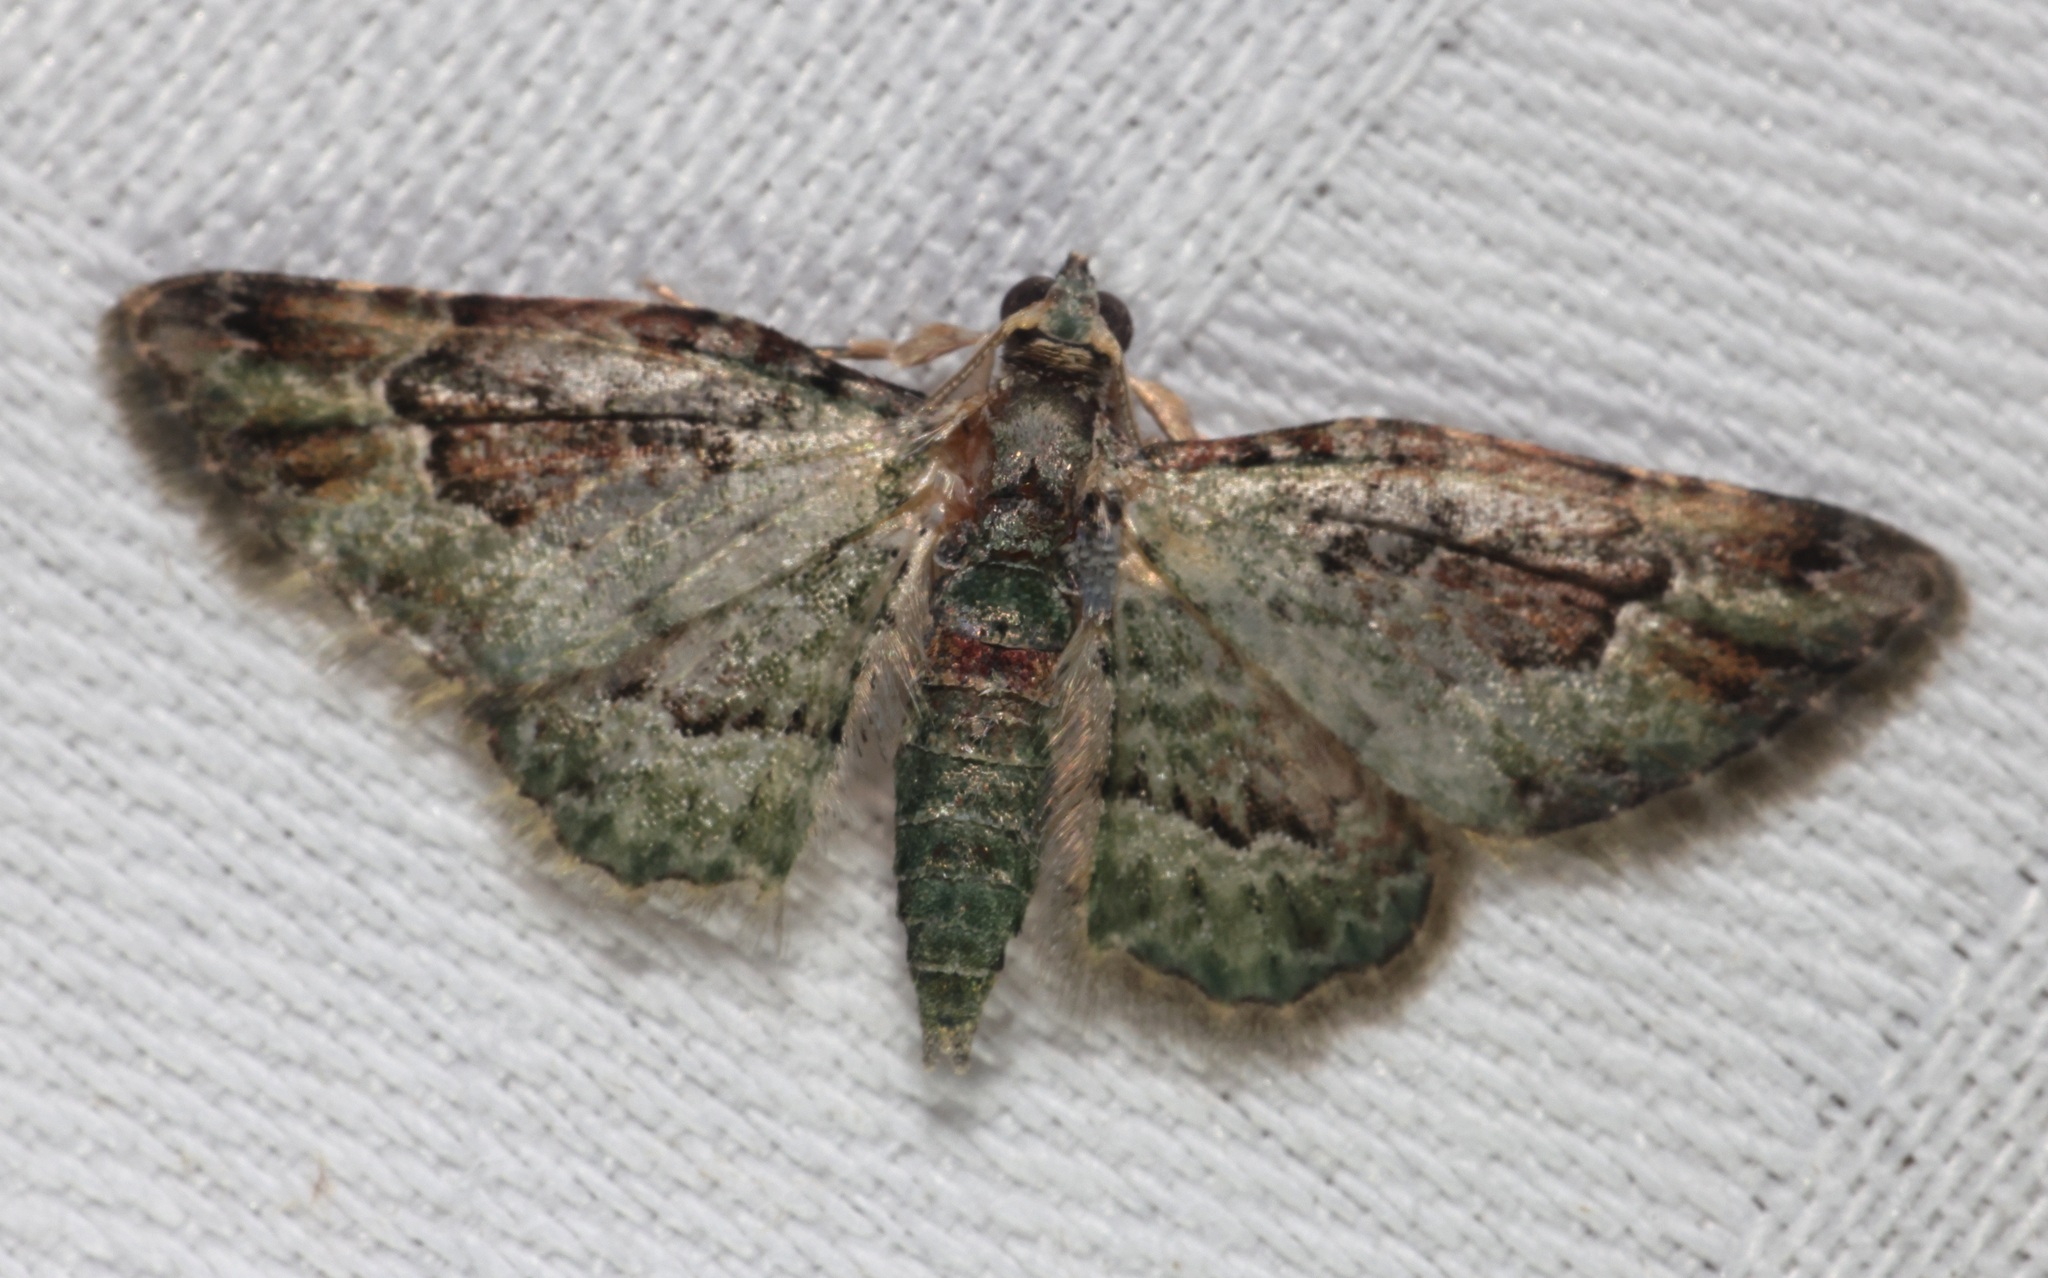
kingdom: Animalia
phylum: Arthropoda
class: Insecta
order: Lepidoptera
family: Geometridae
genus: Calluga
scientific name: Calluga costalis
